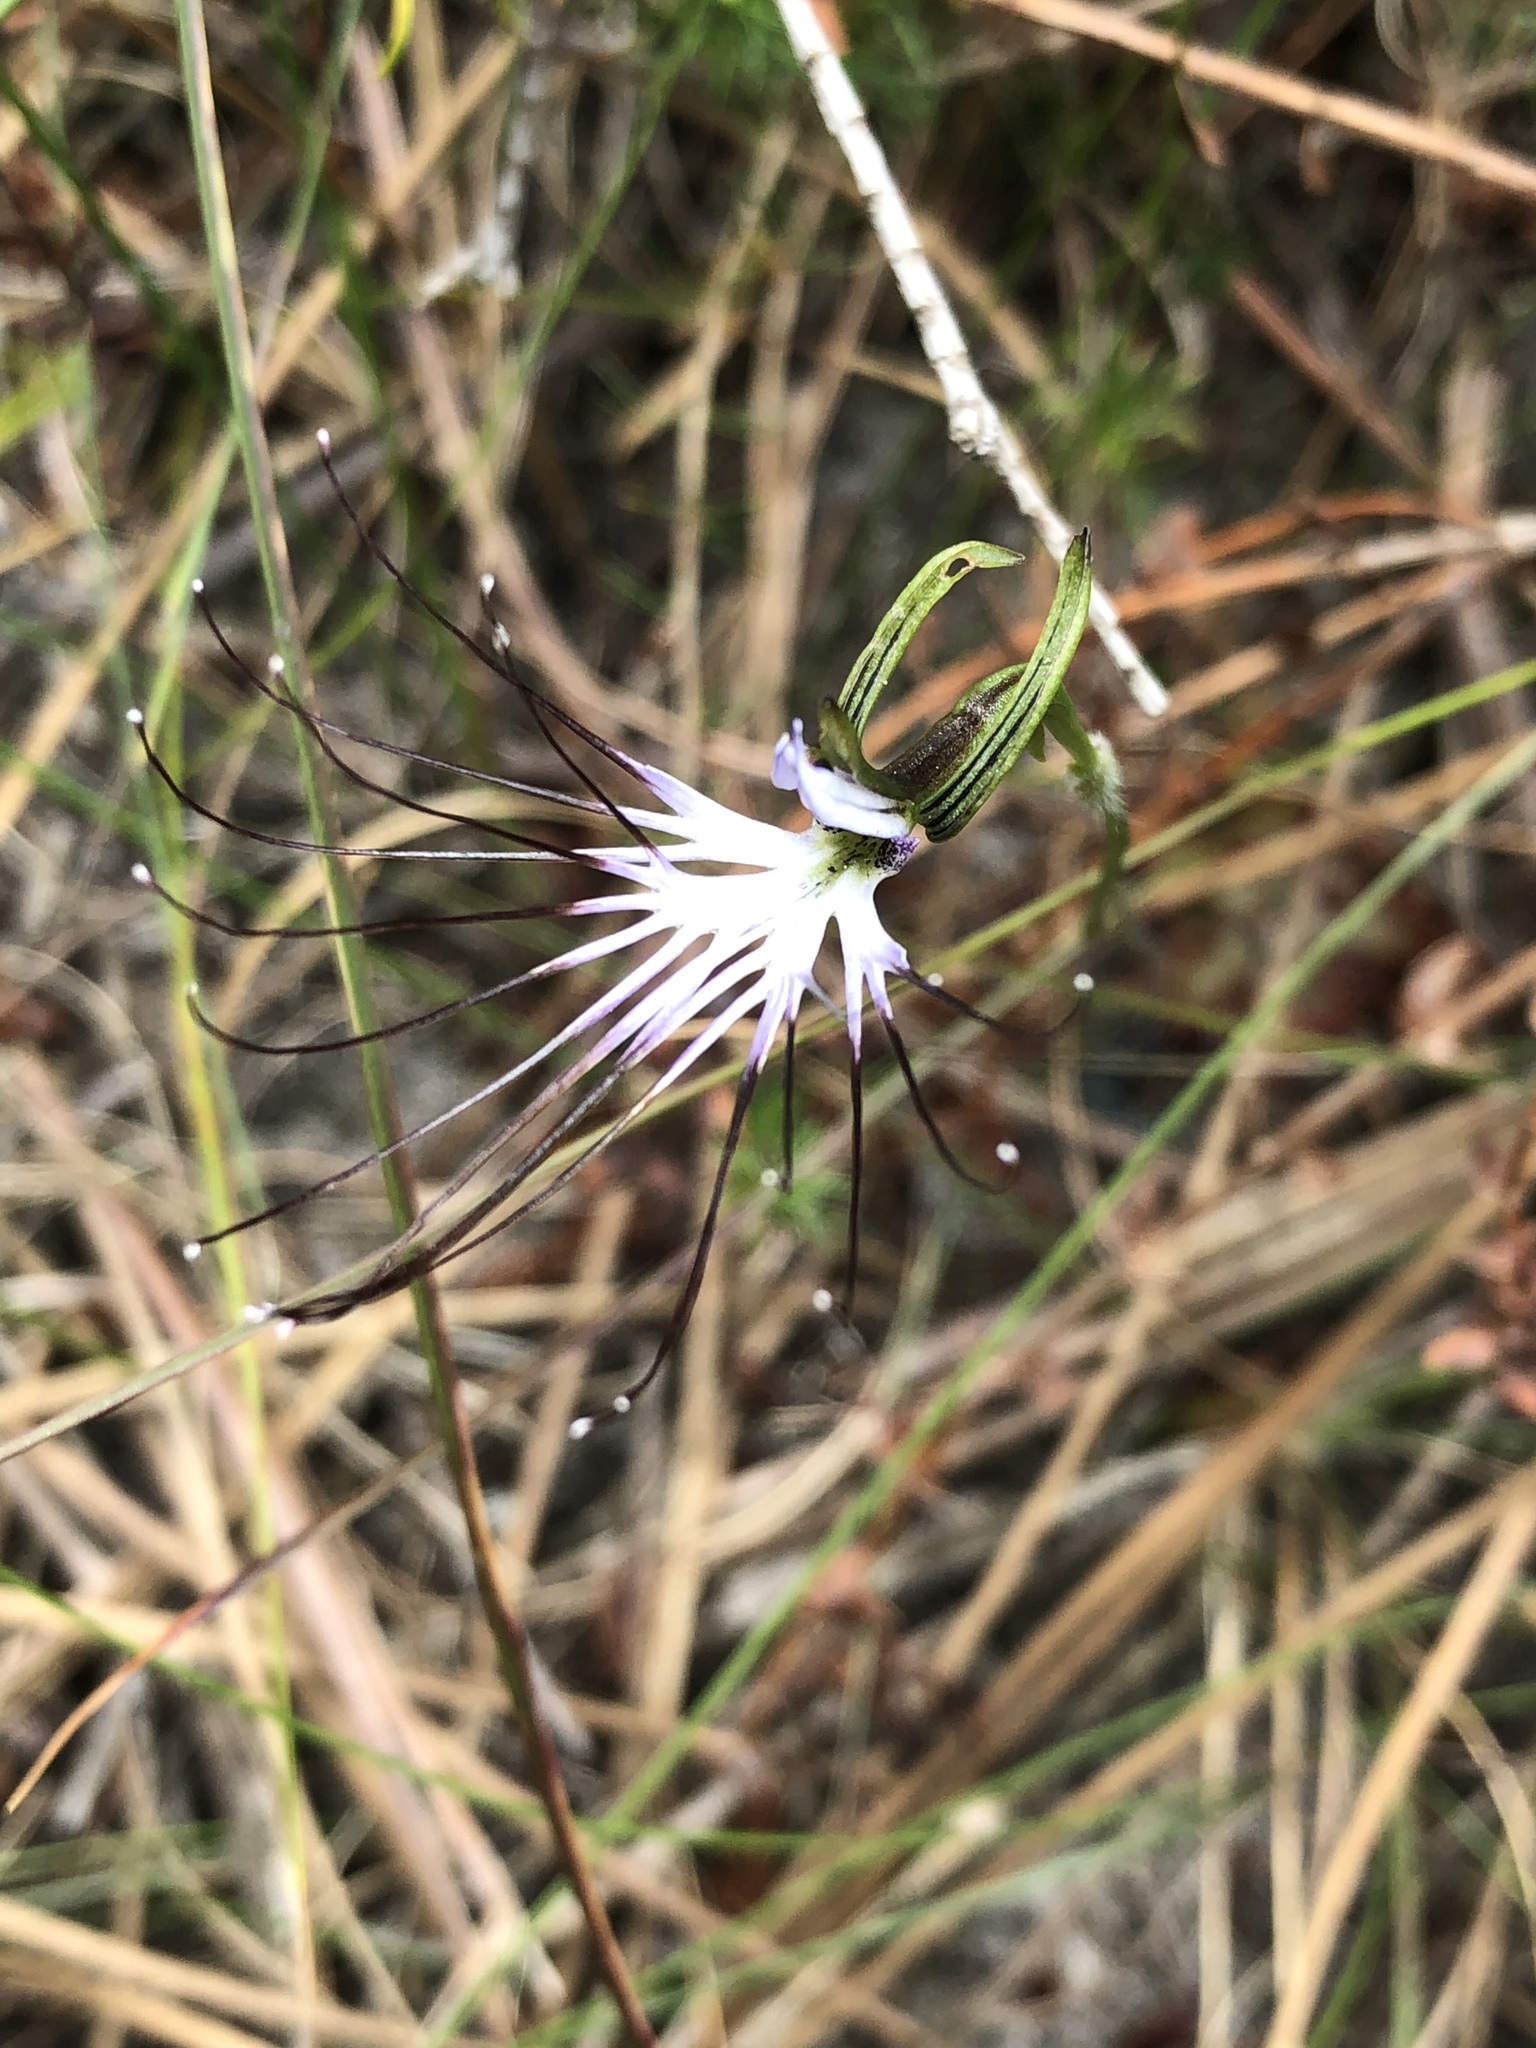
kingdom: Plantae
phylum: Tracheophyta
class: Liliopsida
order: Asparagales
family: Orchidaceae
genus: Holothrix
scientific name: Holothrix etheliae
